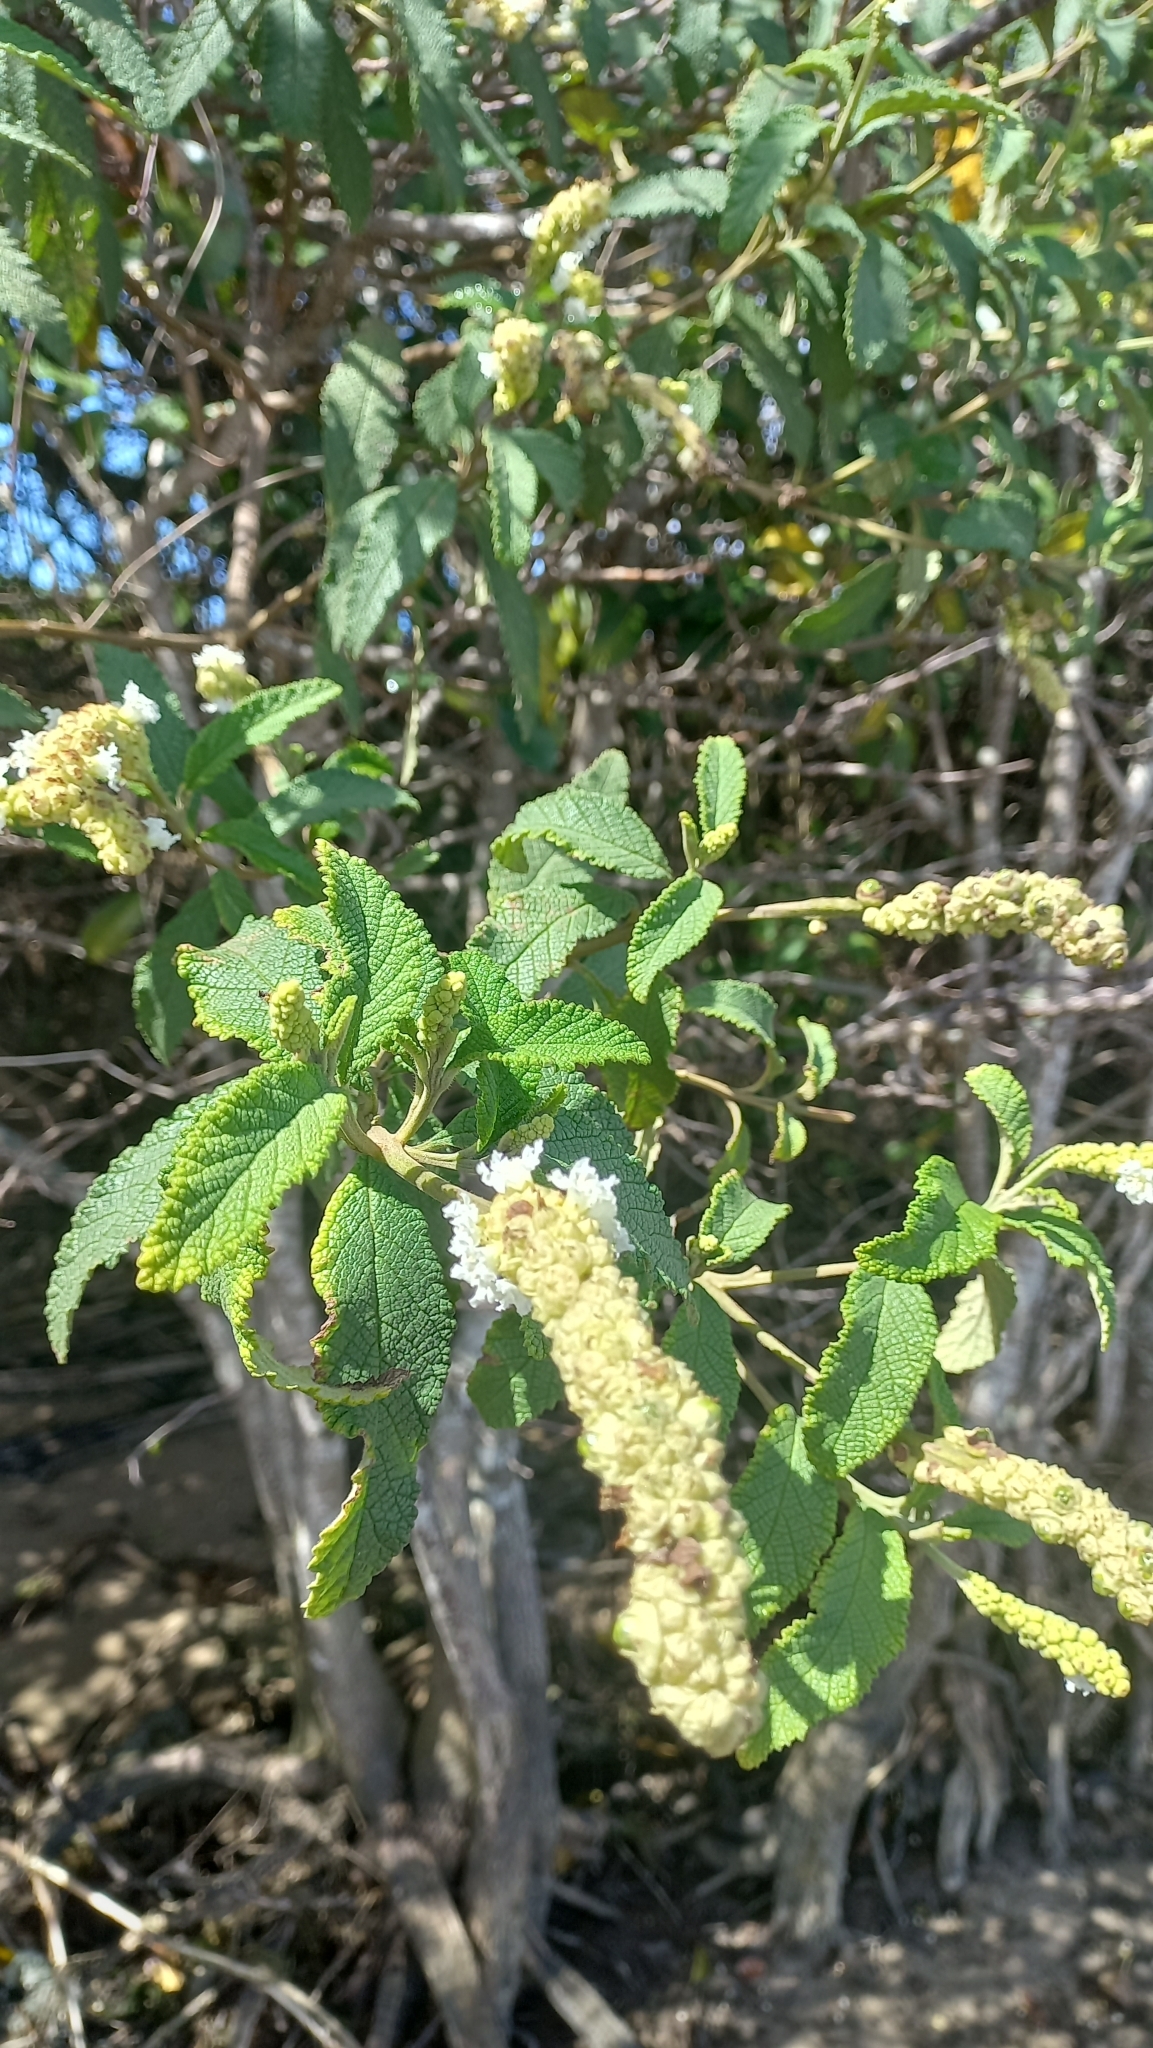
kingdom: Plantae
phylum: Tracheophyta
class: Magnoliopsida
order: Boraginales
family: Cordiaceae
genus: Varronia
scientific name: Varronia curassavica
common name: Black sage
